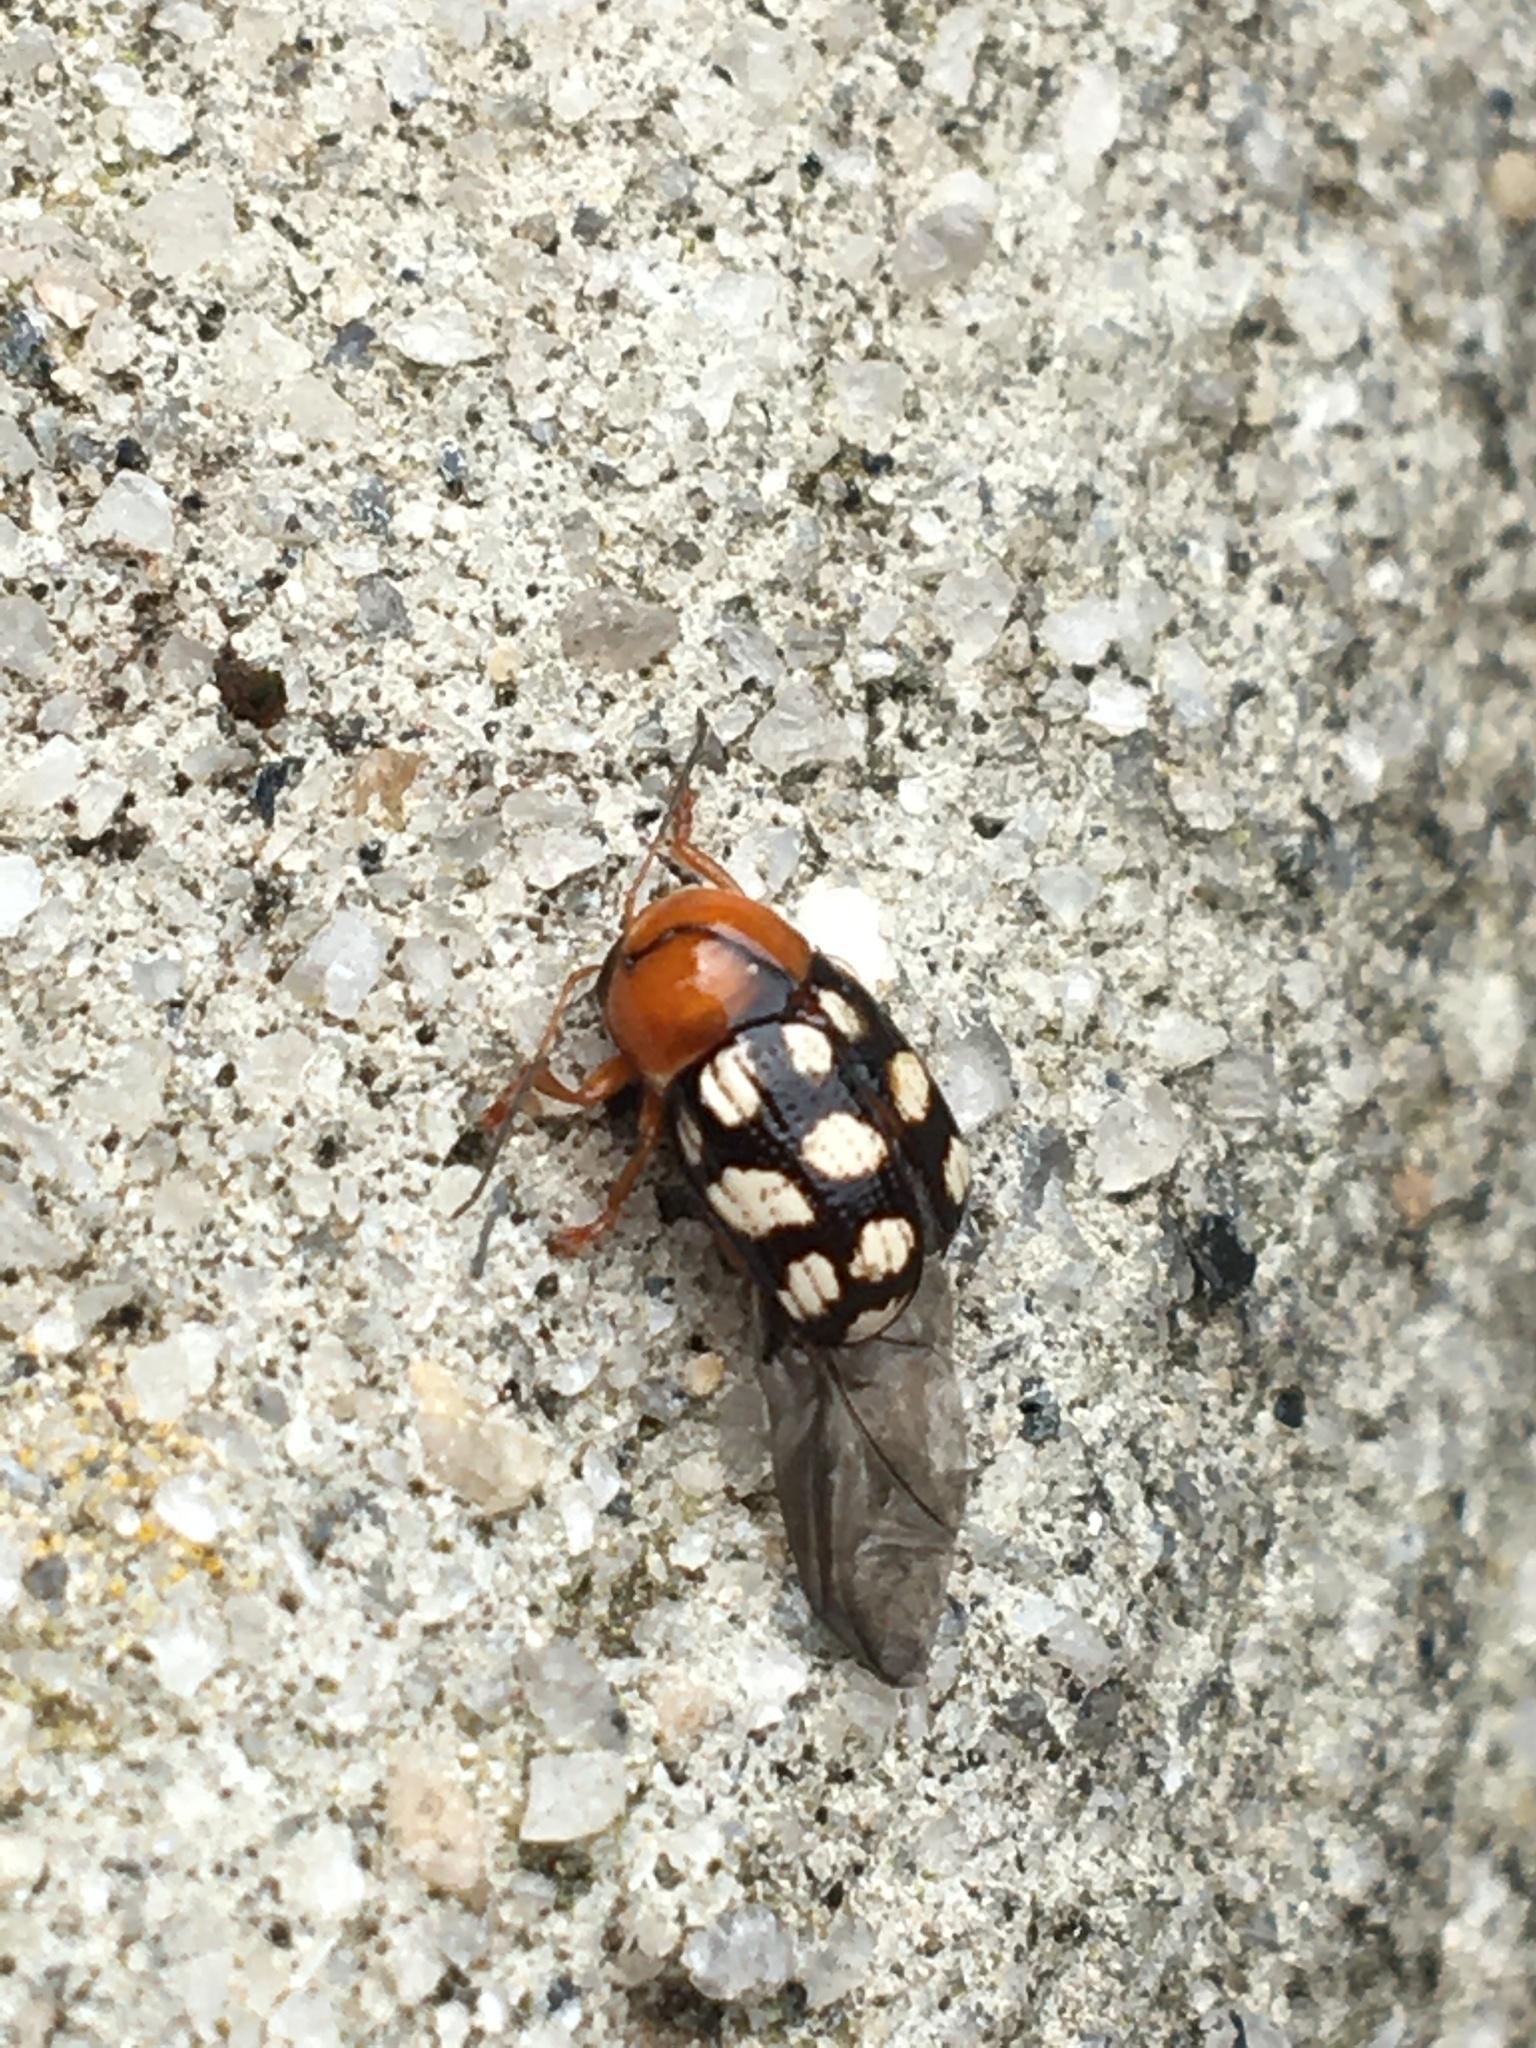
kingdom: Animalia
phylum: Arthropoda
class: Insecta
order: Coleoptera
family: Chrysomelidae
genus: Cryptocephalus
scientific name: Cryptocephalus guttulatus
